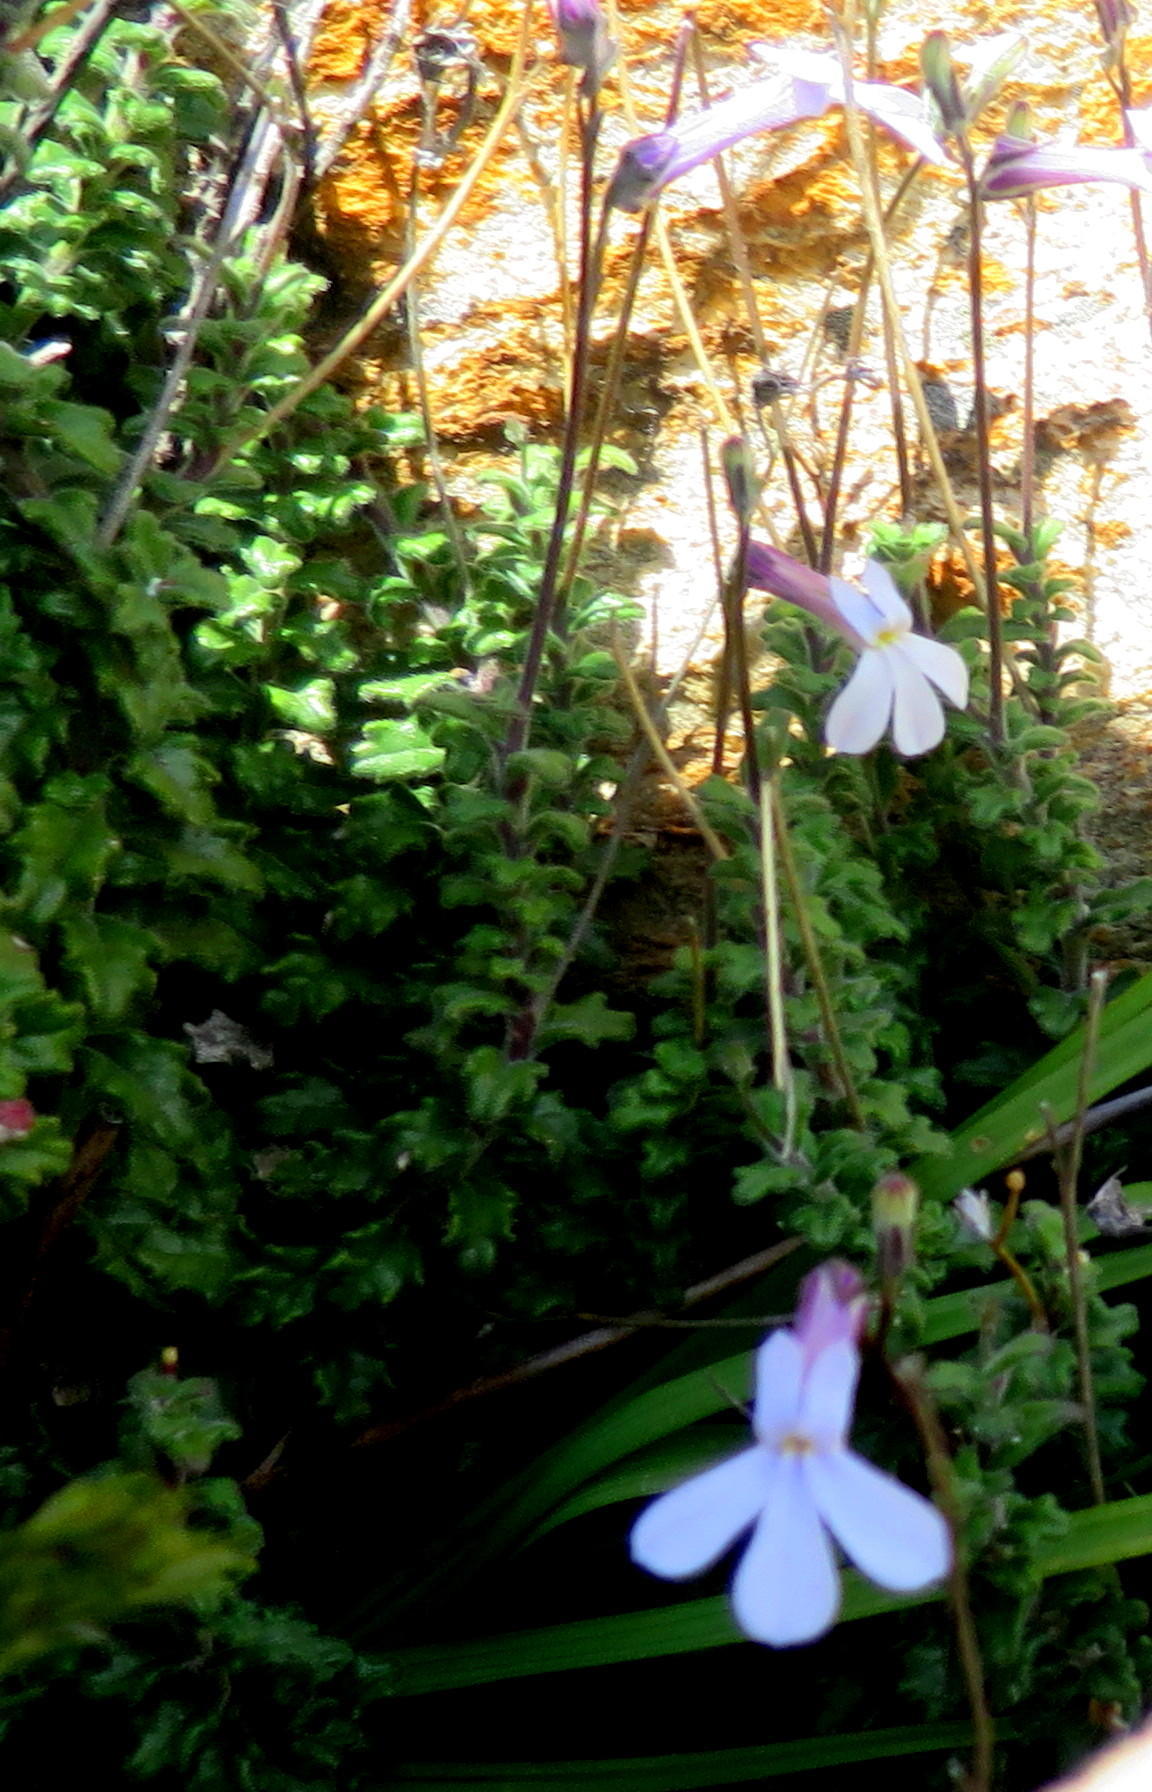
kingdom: Plantae
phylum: Tracheophyta
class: Magnoliopsida
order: Asterales
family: Campanulaceae
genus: Lobelia
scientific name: Lobelia dichroma
